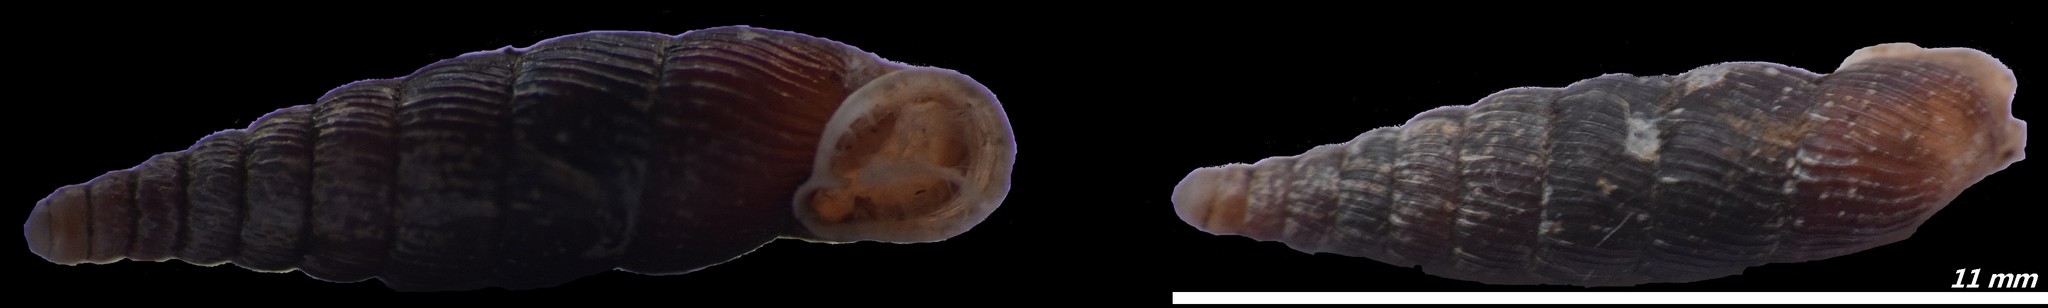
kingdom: Animalia
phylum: Mollusca
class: Gastropoda
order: Stylommatophora
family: Clausiliidae
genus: Macrogastra
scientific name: Macrogastra plicatula
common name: Plicate door snail
